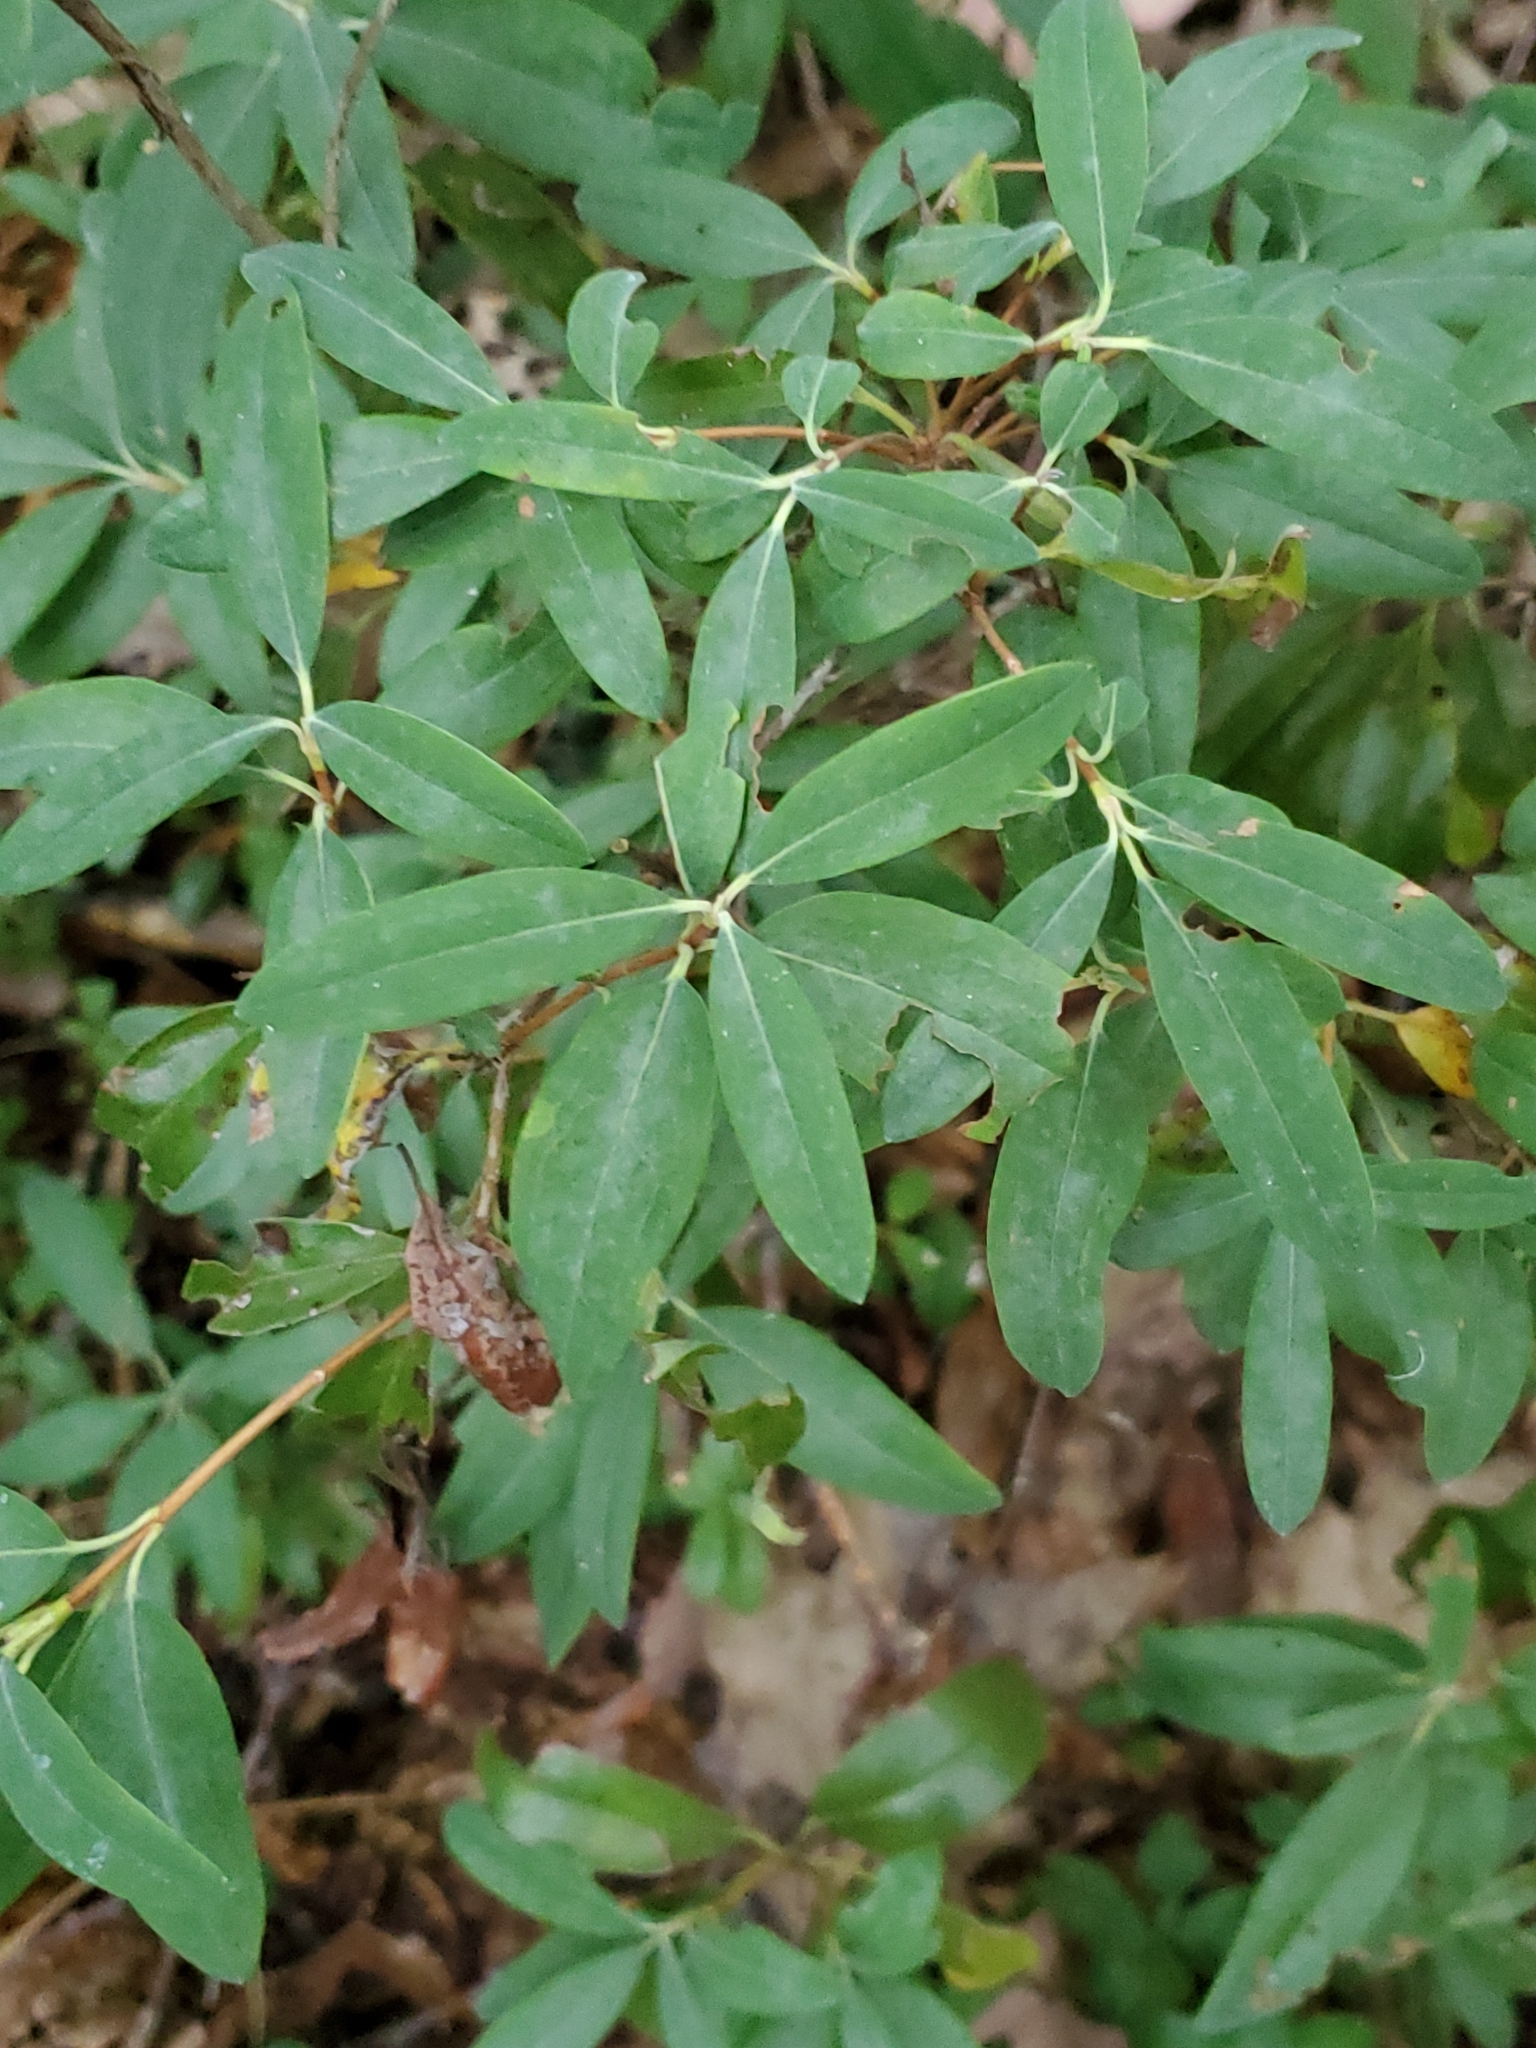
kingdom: Plantae
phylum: Tracheophyta
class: Magnoliopsida
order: Ericales
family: Ericaceae
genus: Kalmia
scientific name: Kalmia angustifolia
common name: Sheep-laurel
